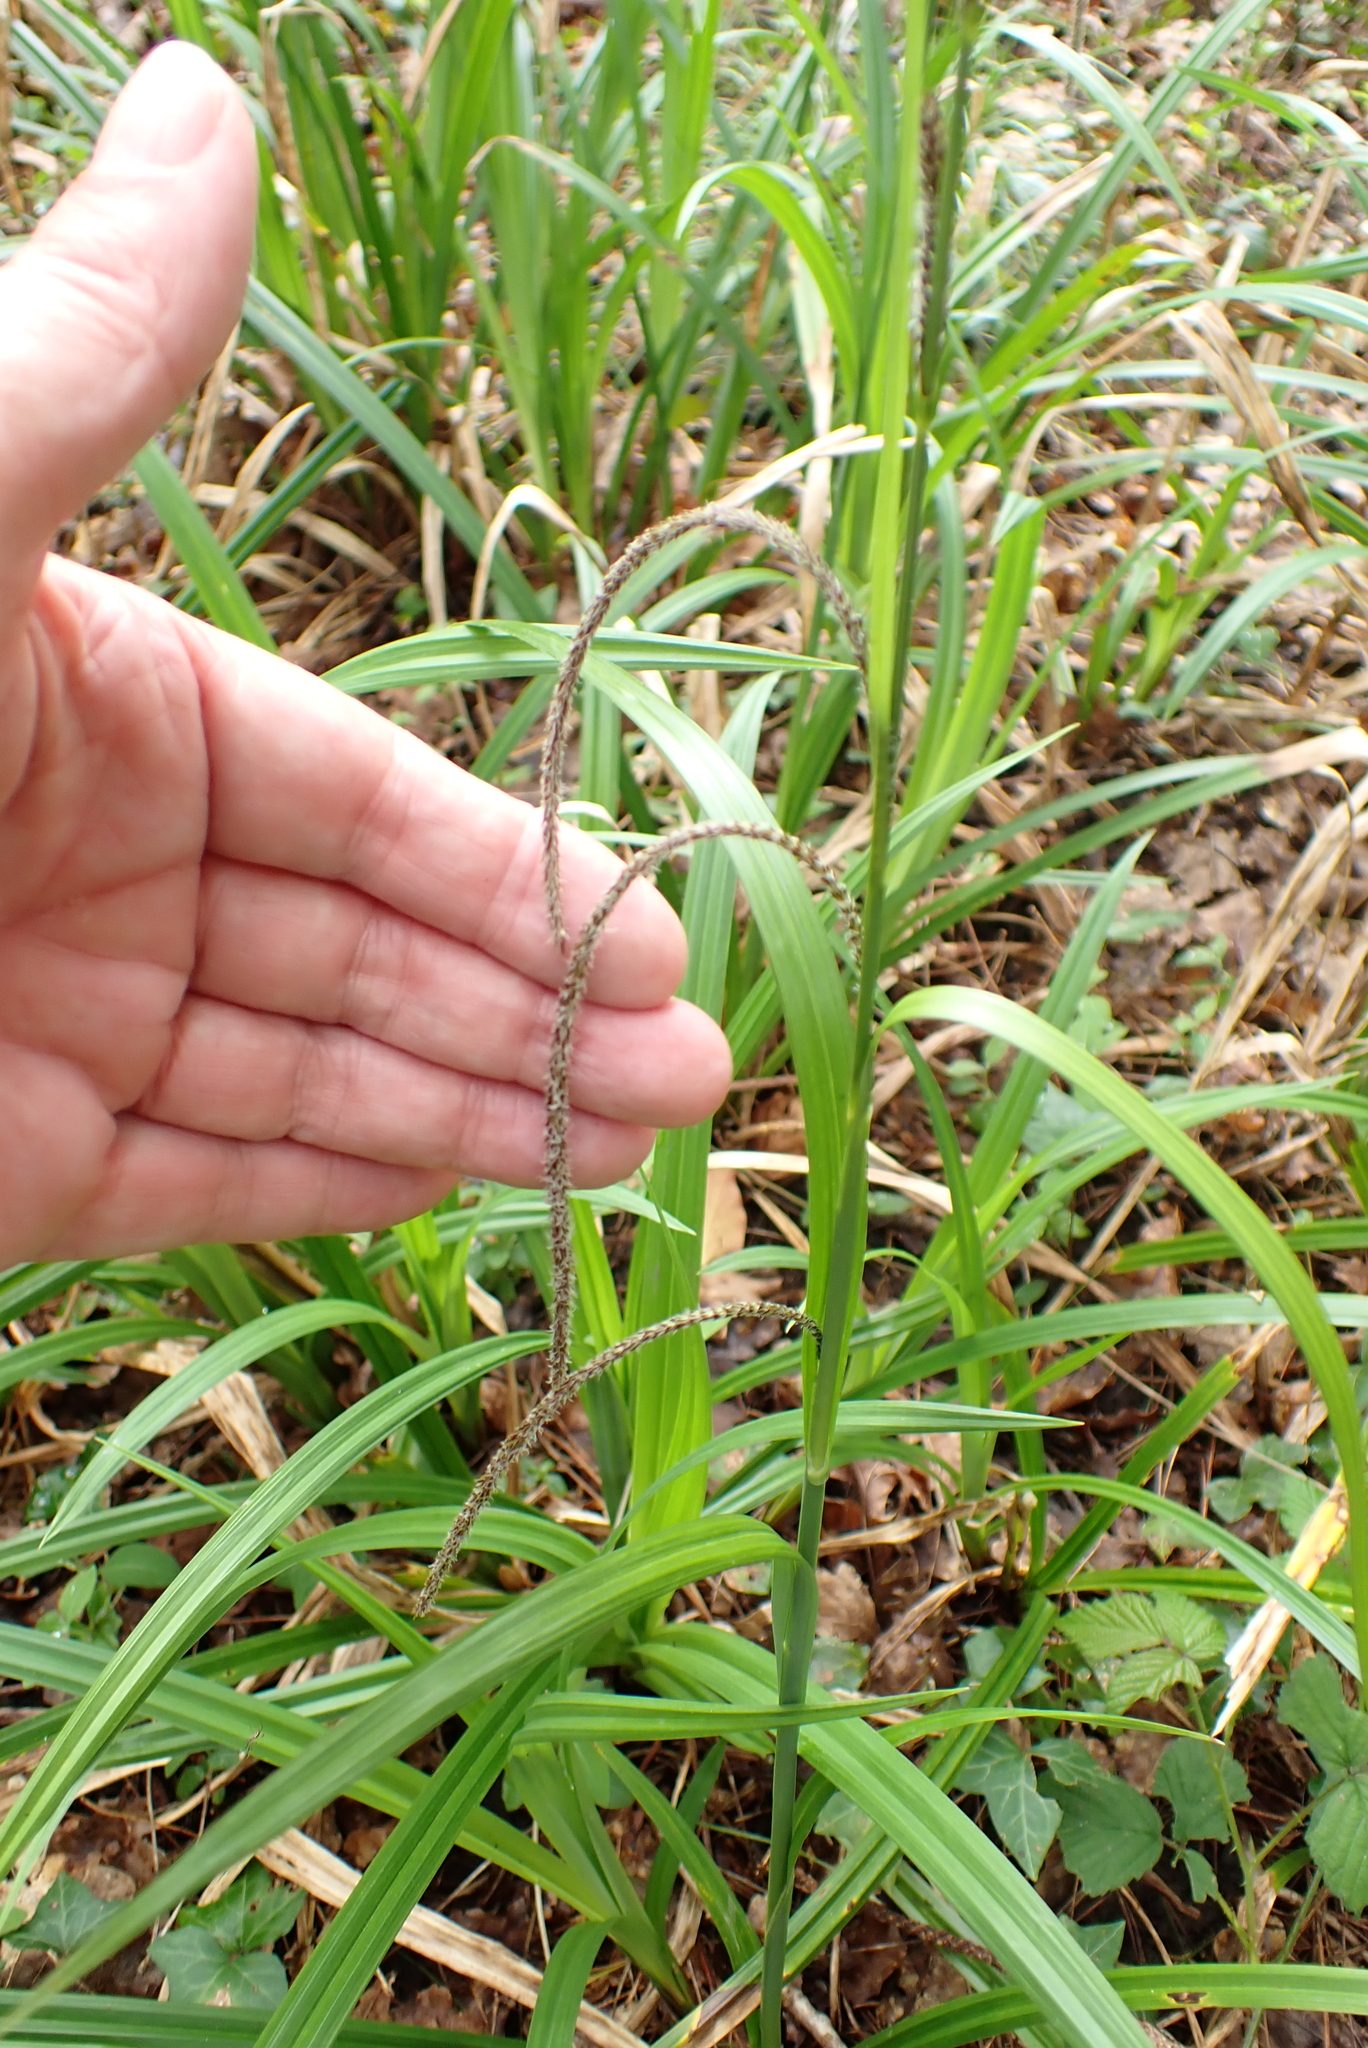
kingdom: Plantae
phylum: Tracheophyta
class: Liliopsida
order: Poales
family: Cyperaceae
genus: Carex
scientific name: Carex pendula
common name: Pendulous sedge
